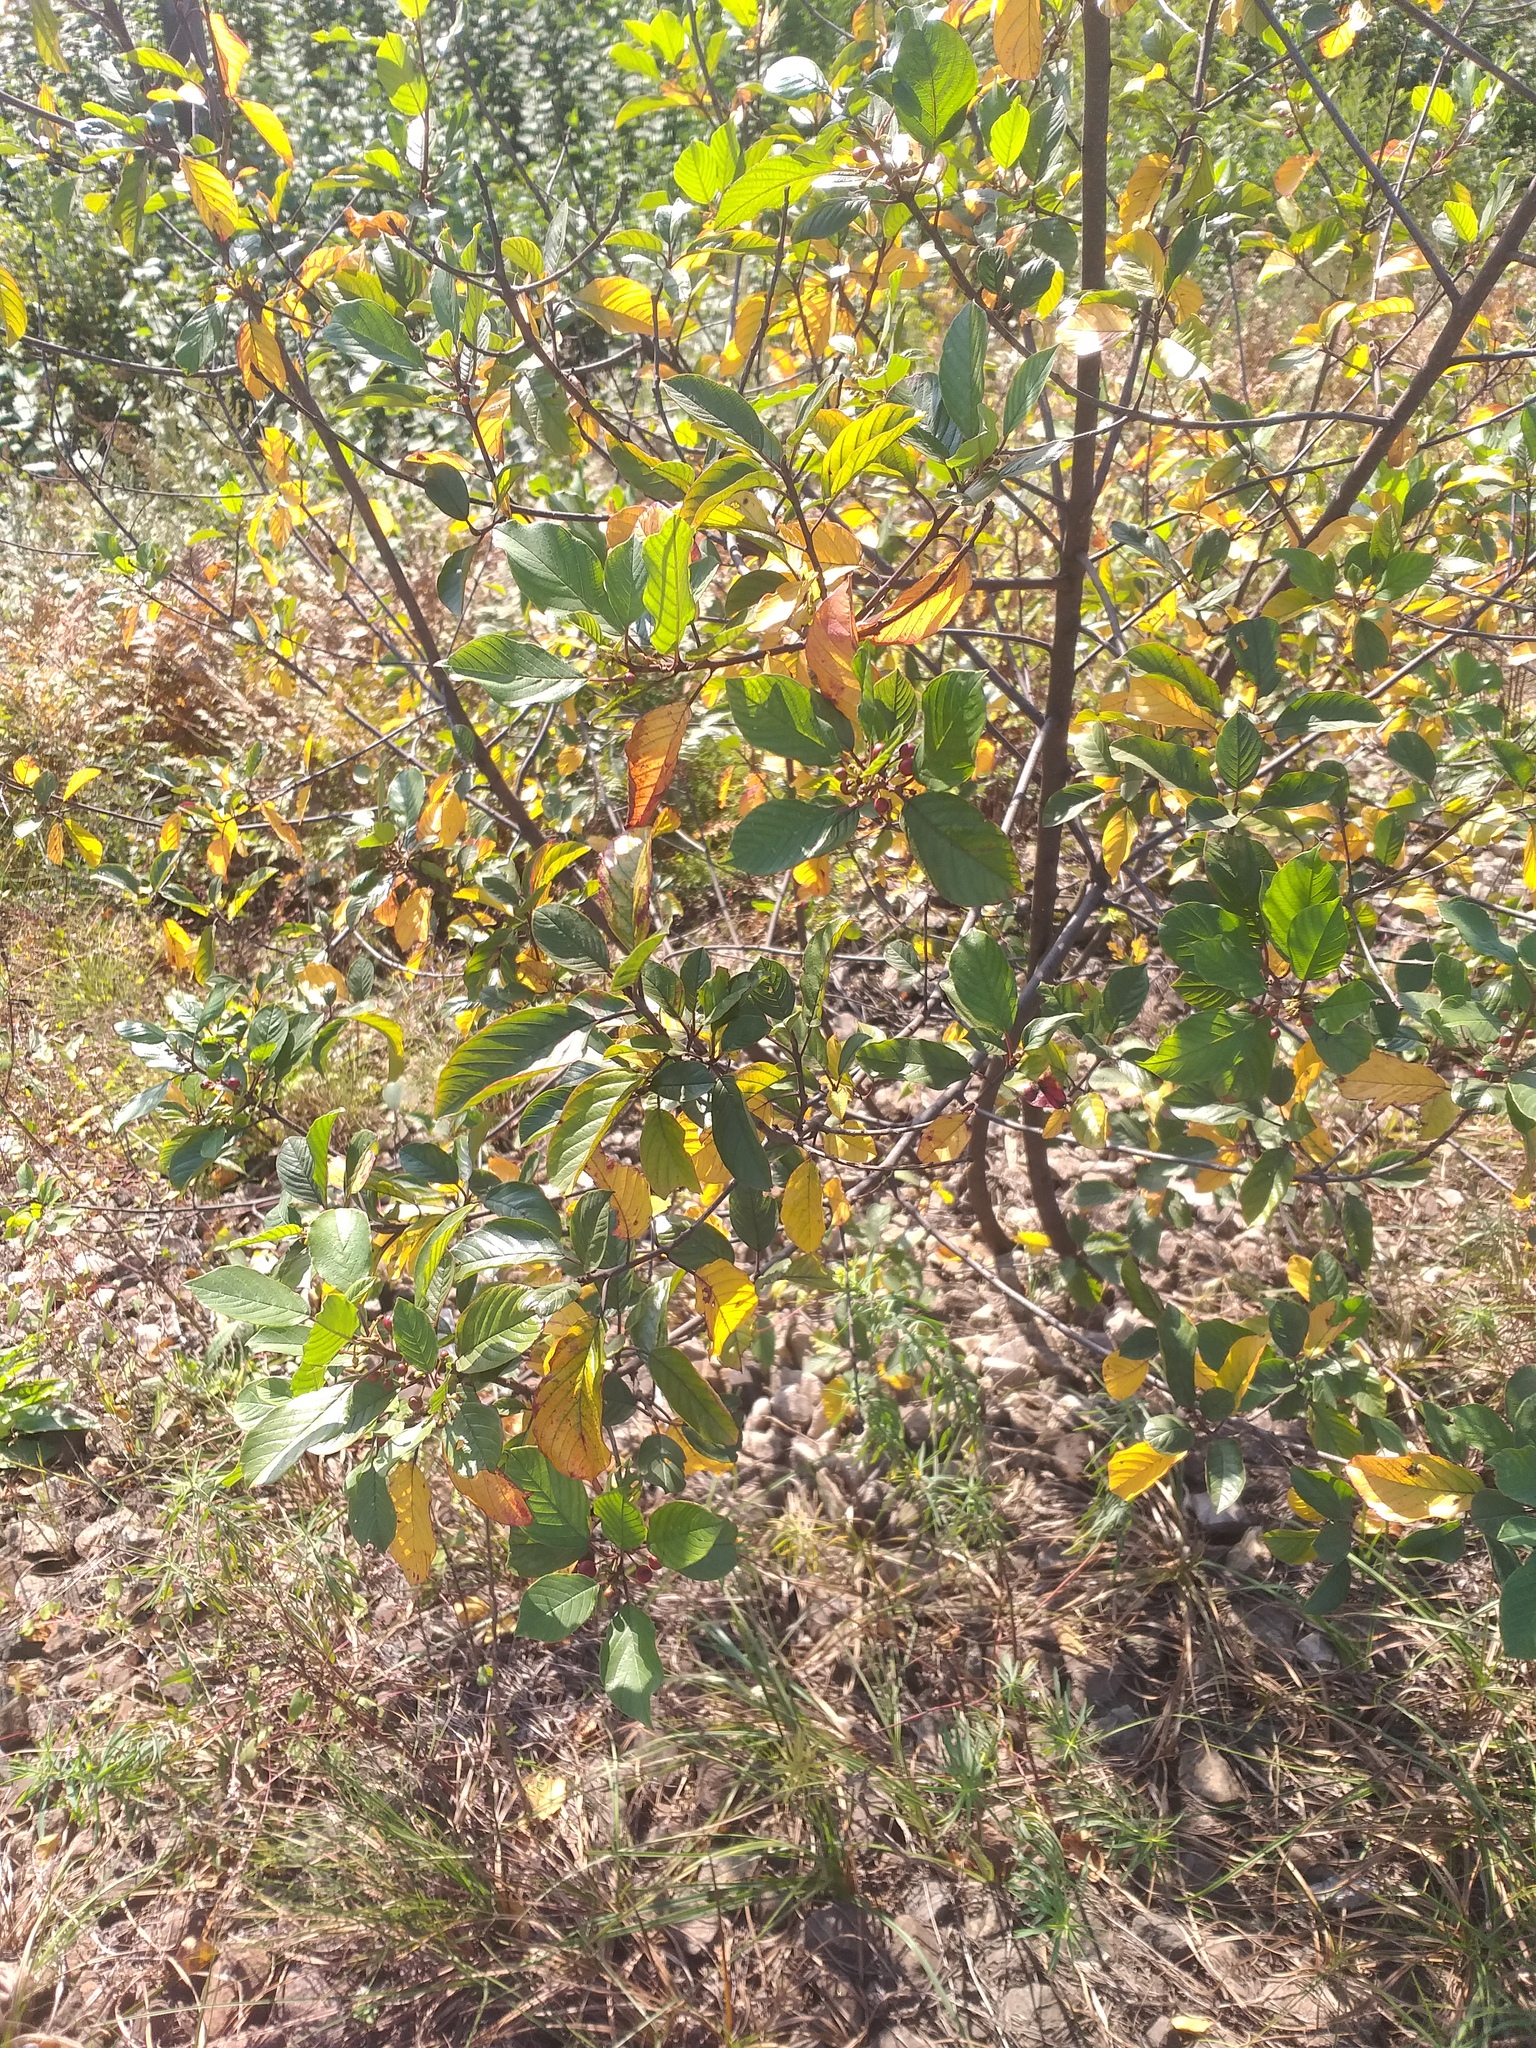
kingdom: Plantae
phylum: Tracheophyta
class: Magnoliopsida
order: Rosales
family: Rhamnaceae
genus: Frangula
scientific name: Frangula alnus
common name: Alder buckthorn
